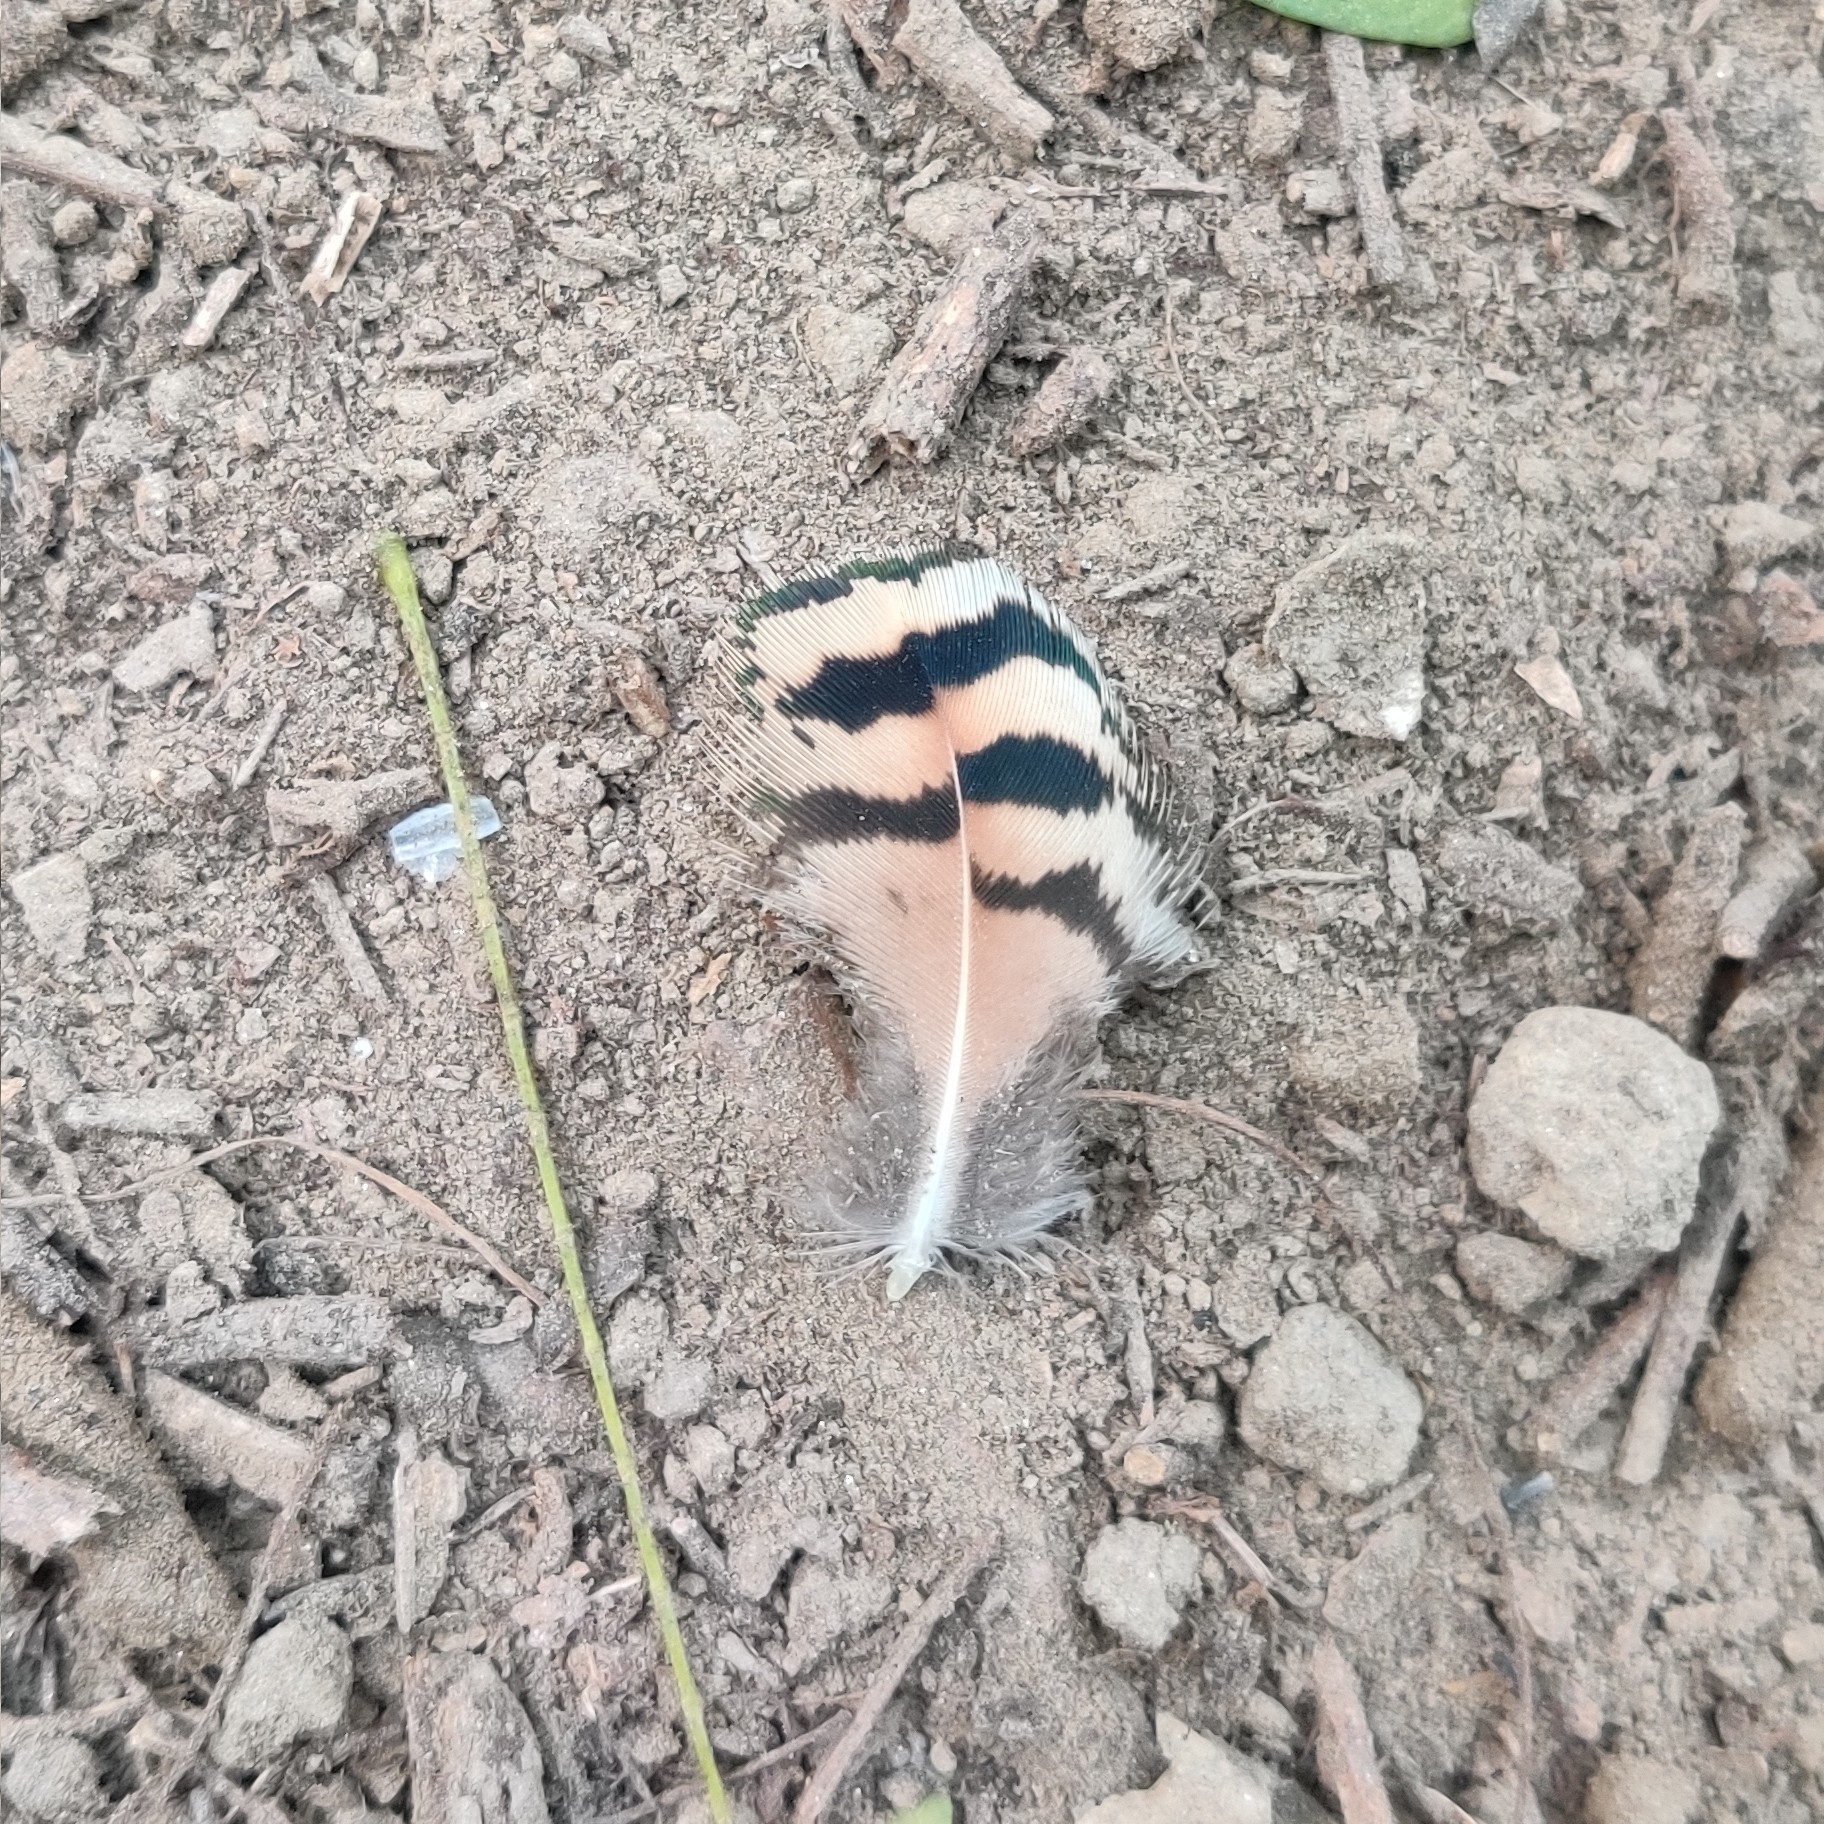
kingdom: Animalia
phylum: Chordata
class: Aves
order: Galliformes
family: Phasianidae
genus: Pavo
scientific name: Pavo cristatus
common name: Indian peafowl
